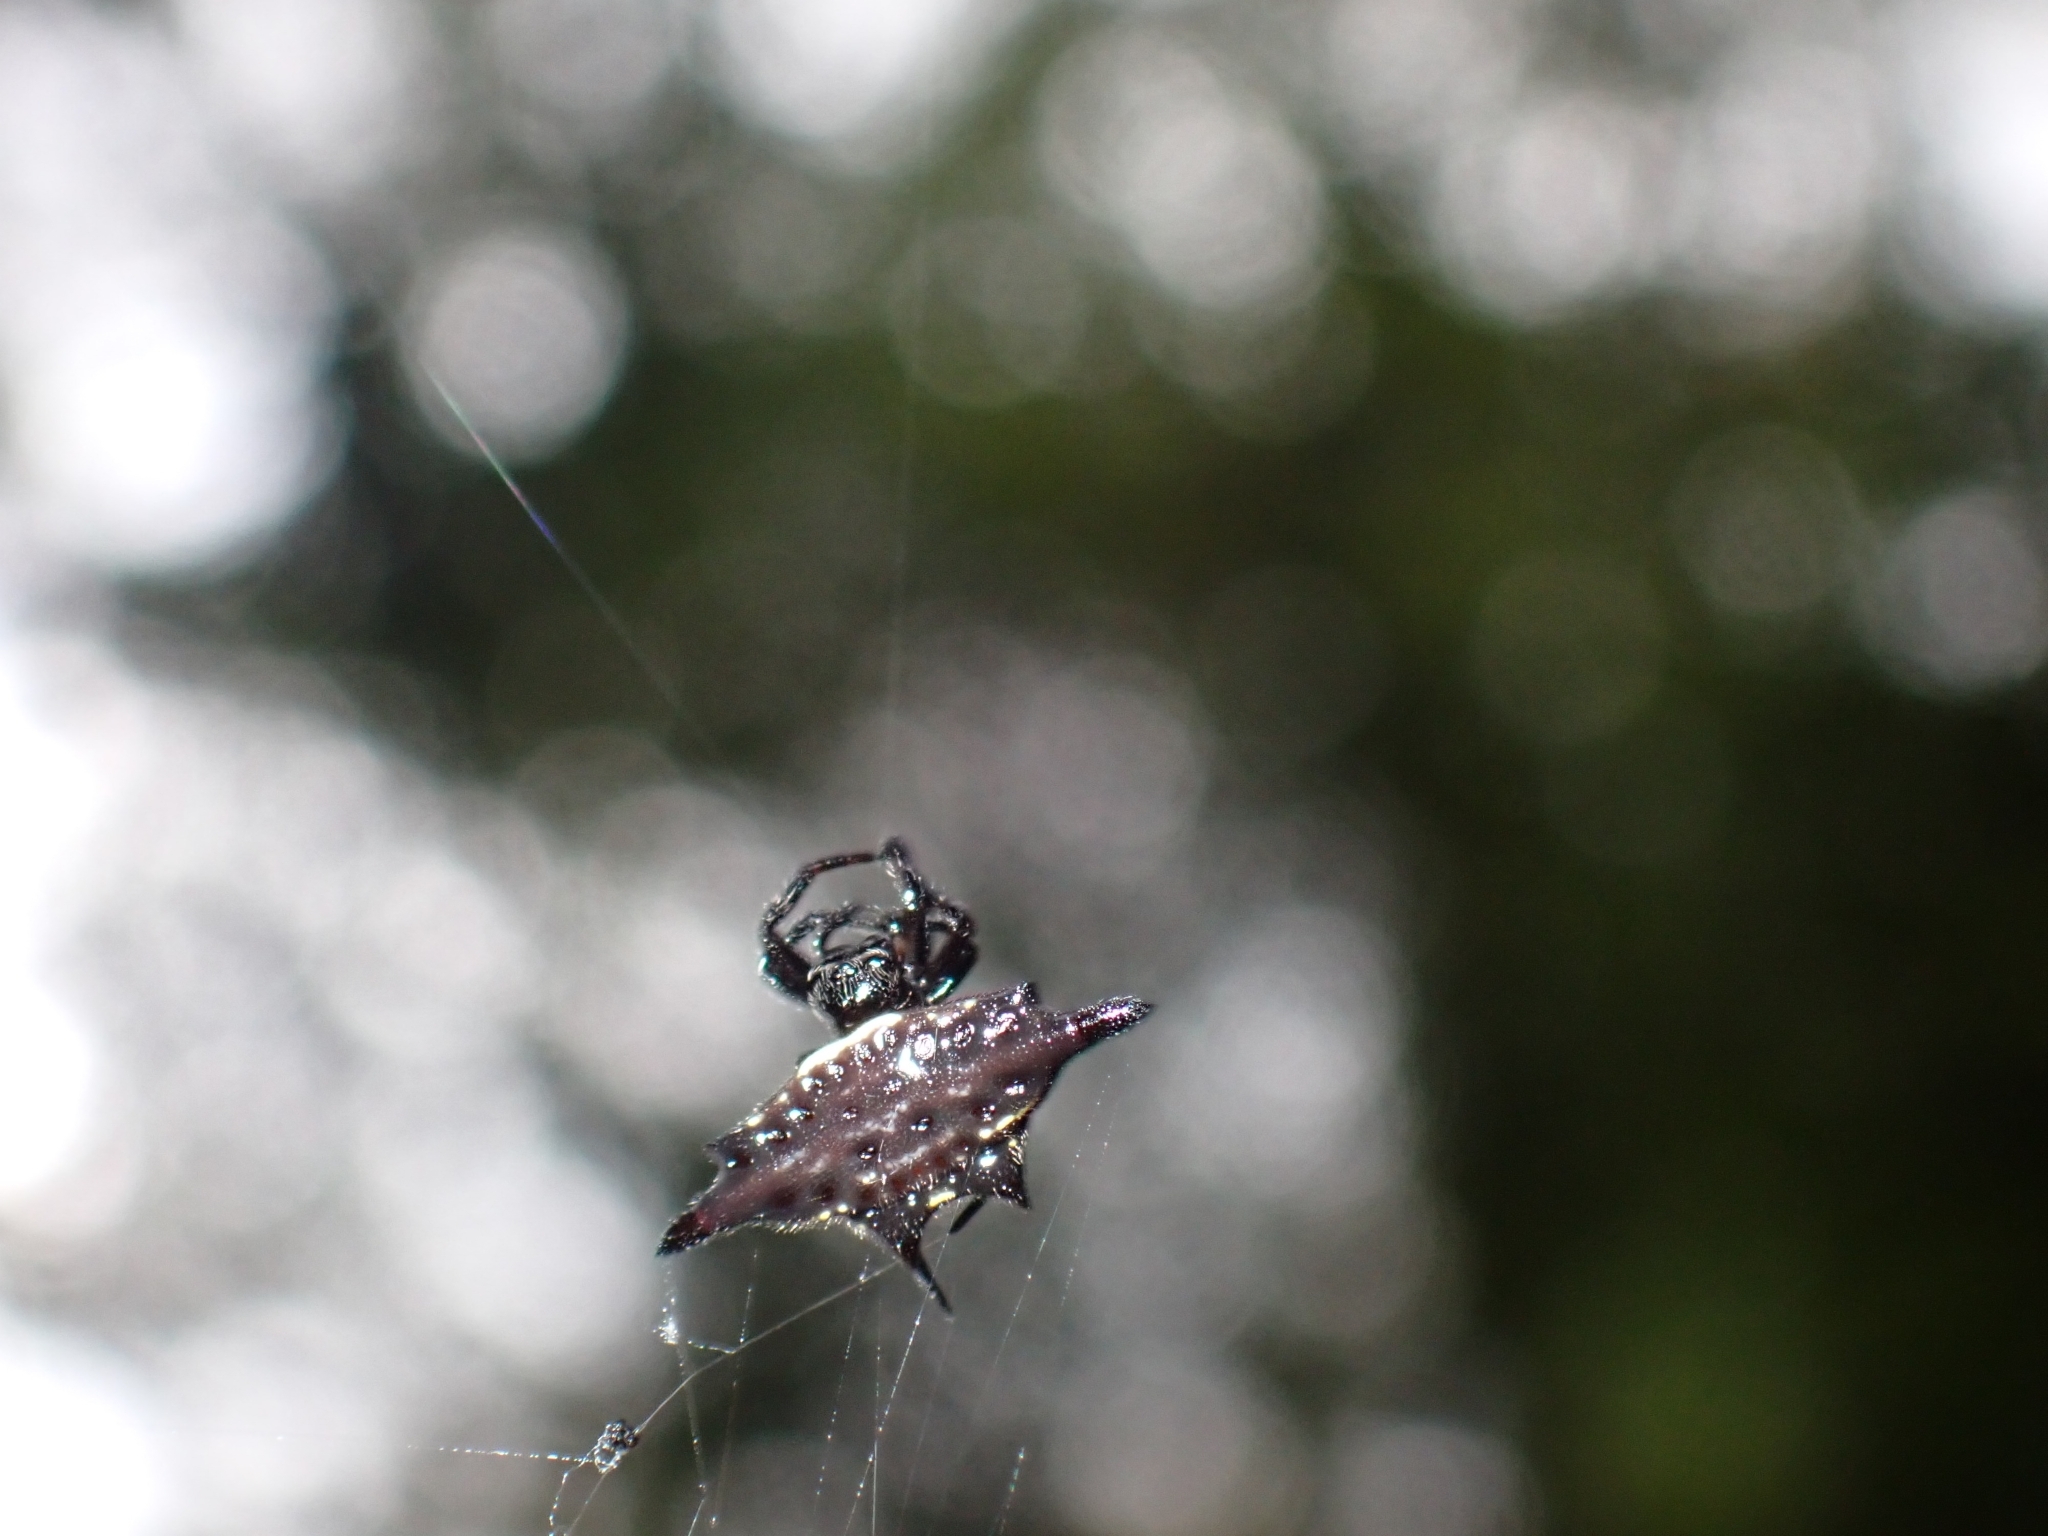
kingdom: Animalia
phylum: Arthropoda
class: Arachnida
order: Araneae
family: Araneidae
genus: Gasteracantha
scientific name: Gasteracantha diardi
